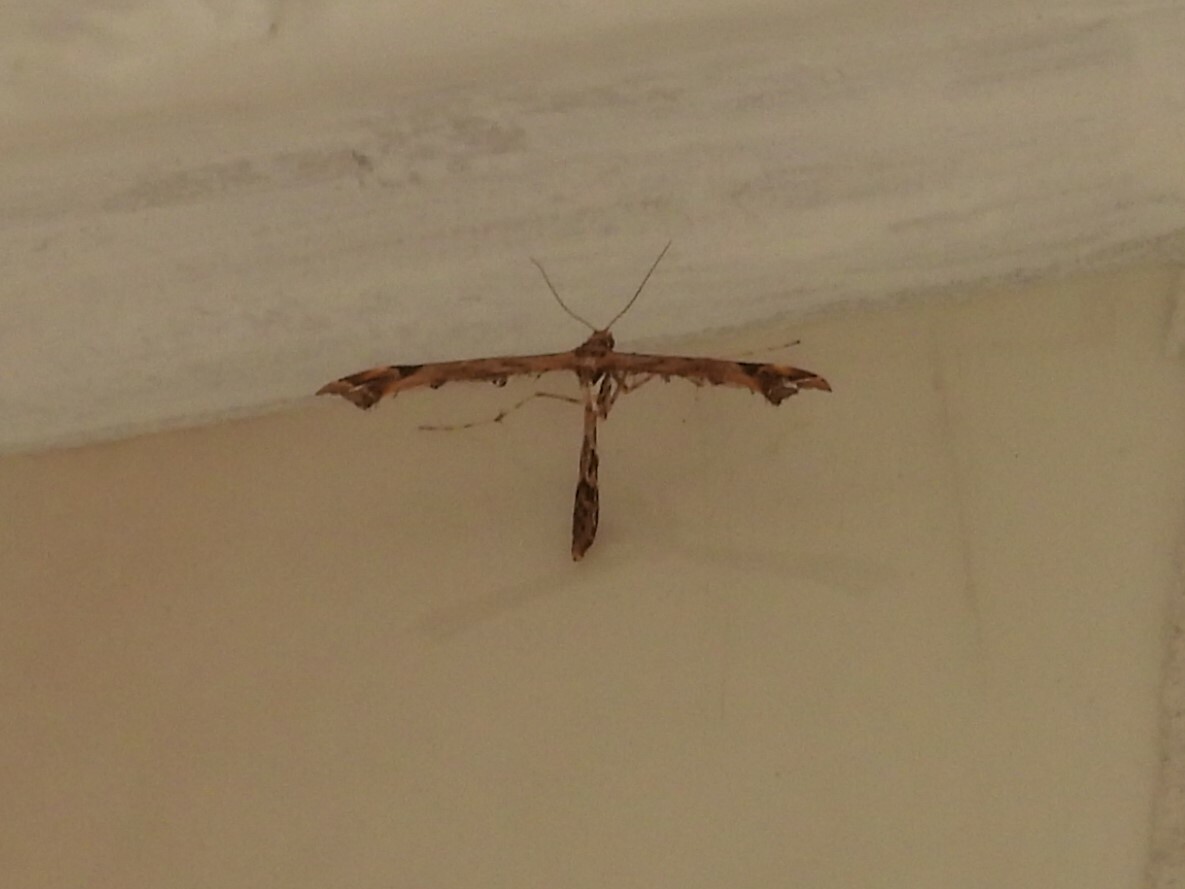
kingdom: Animalia
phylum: Arthropoda
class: Insecta
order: Lepidoptera
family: Pterophoridae
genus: Amblyptilia
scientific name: Amblyptilia acanthadactyla
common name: Beautiful plume
